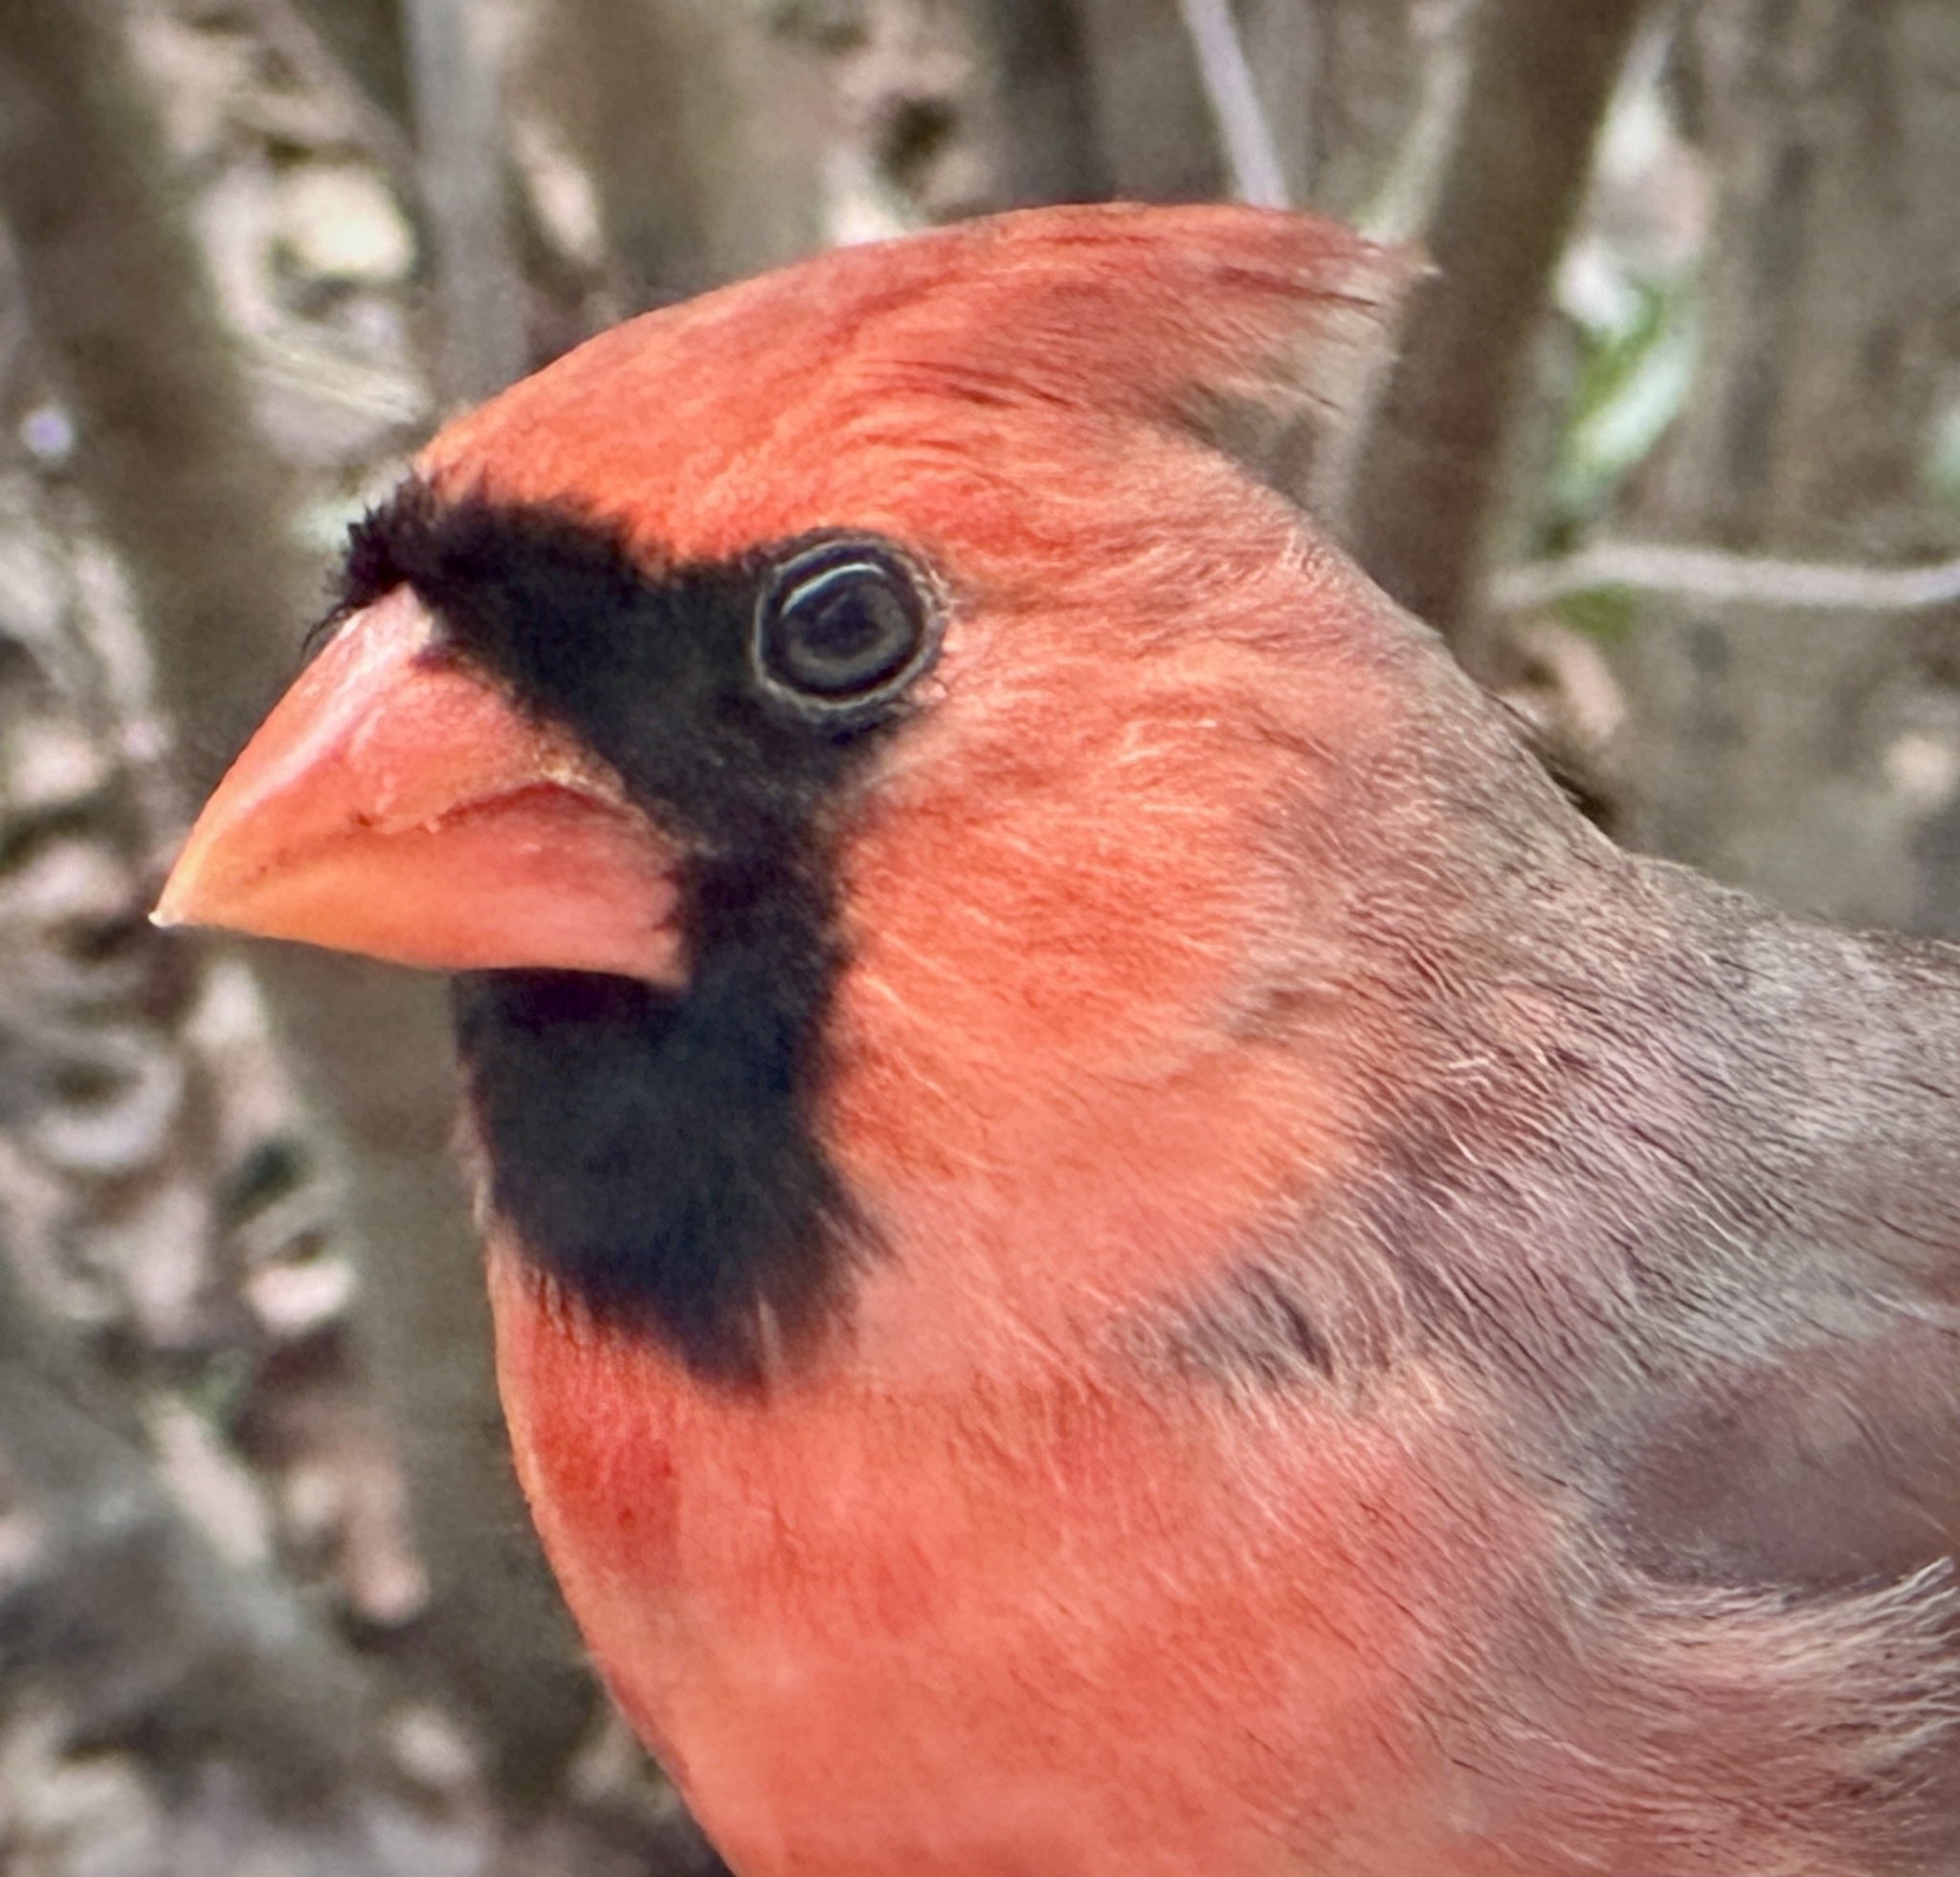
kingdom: Animalia
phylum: Chordata
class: Aves
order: Passeriformes
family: Cardinalidae
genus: Cardinalis
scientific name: Cardinalis cardinalis
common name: Northern cardinal
